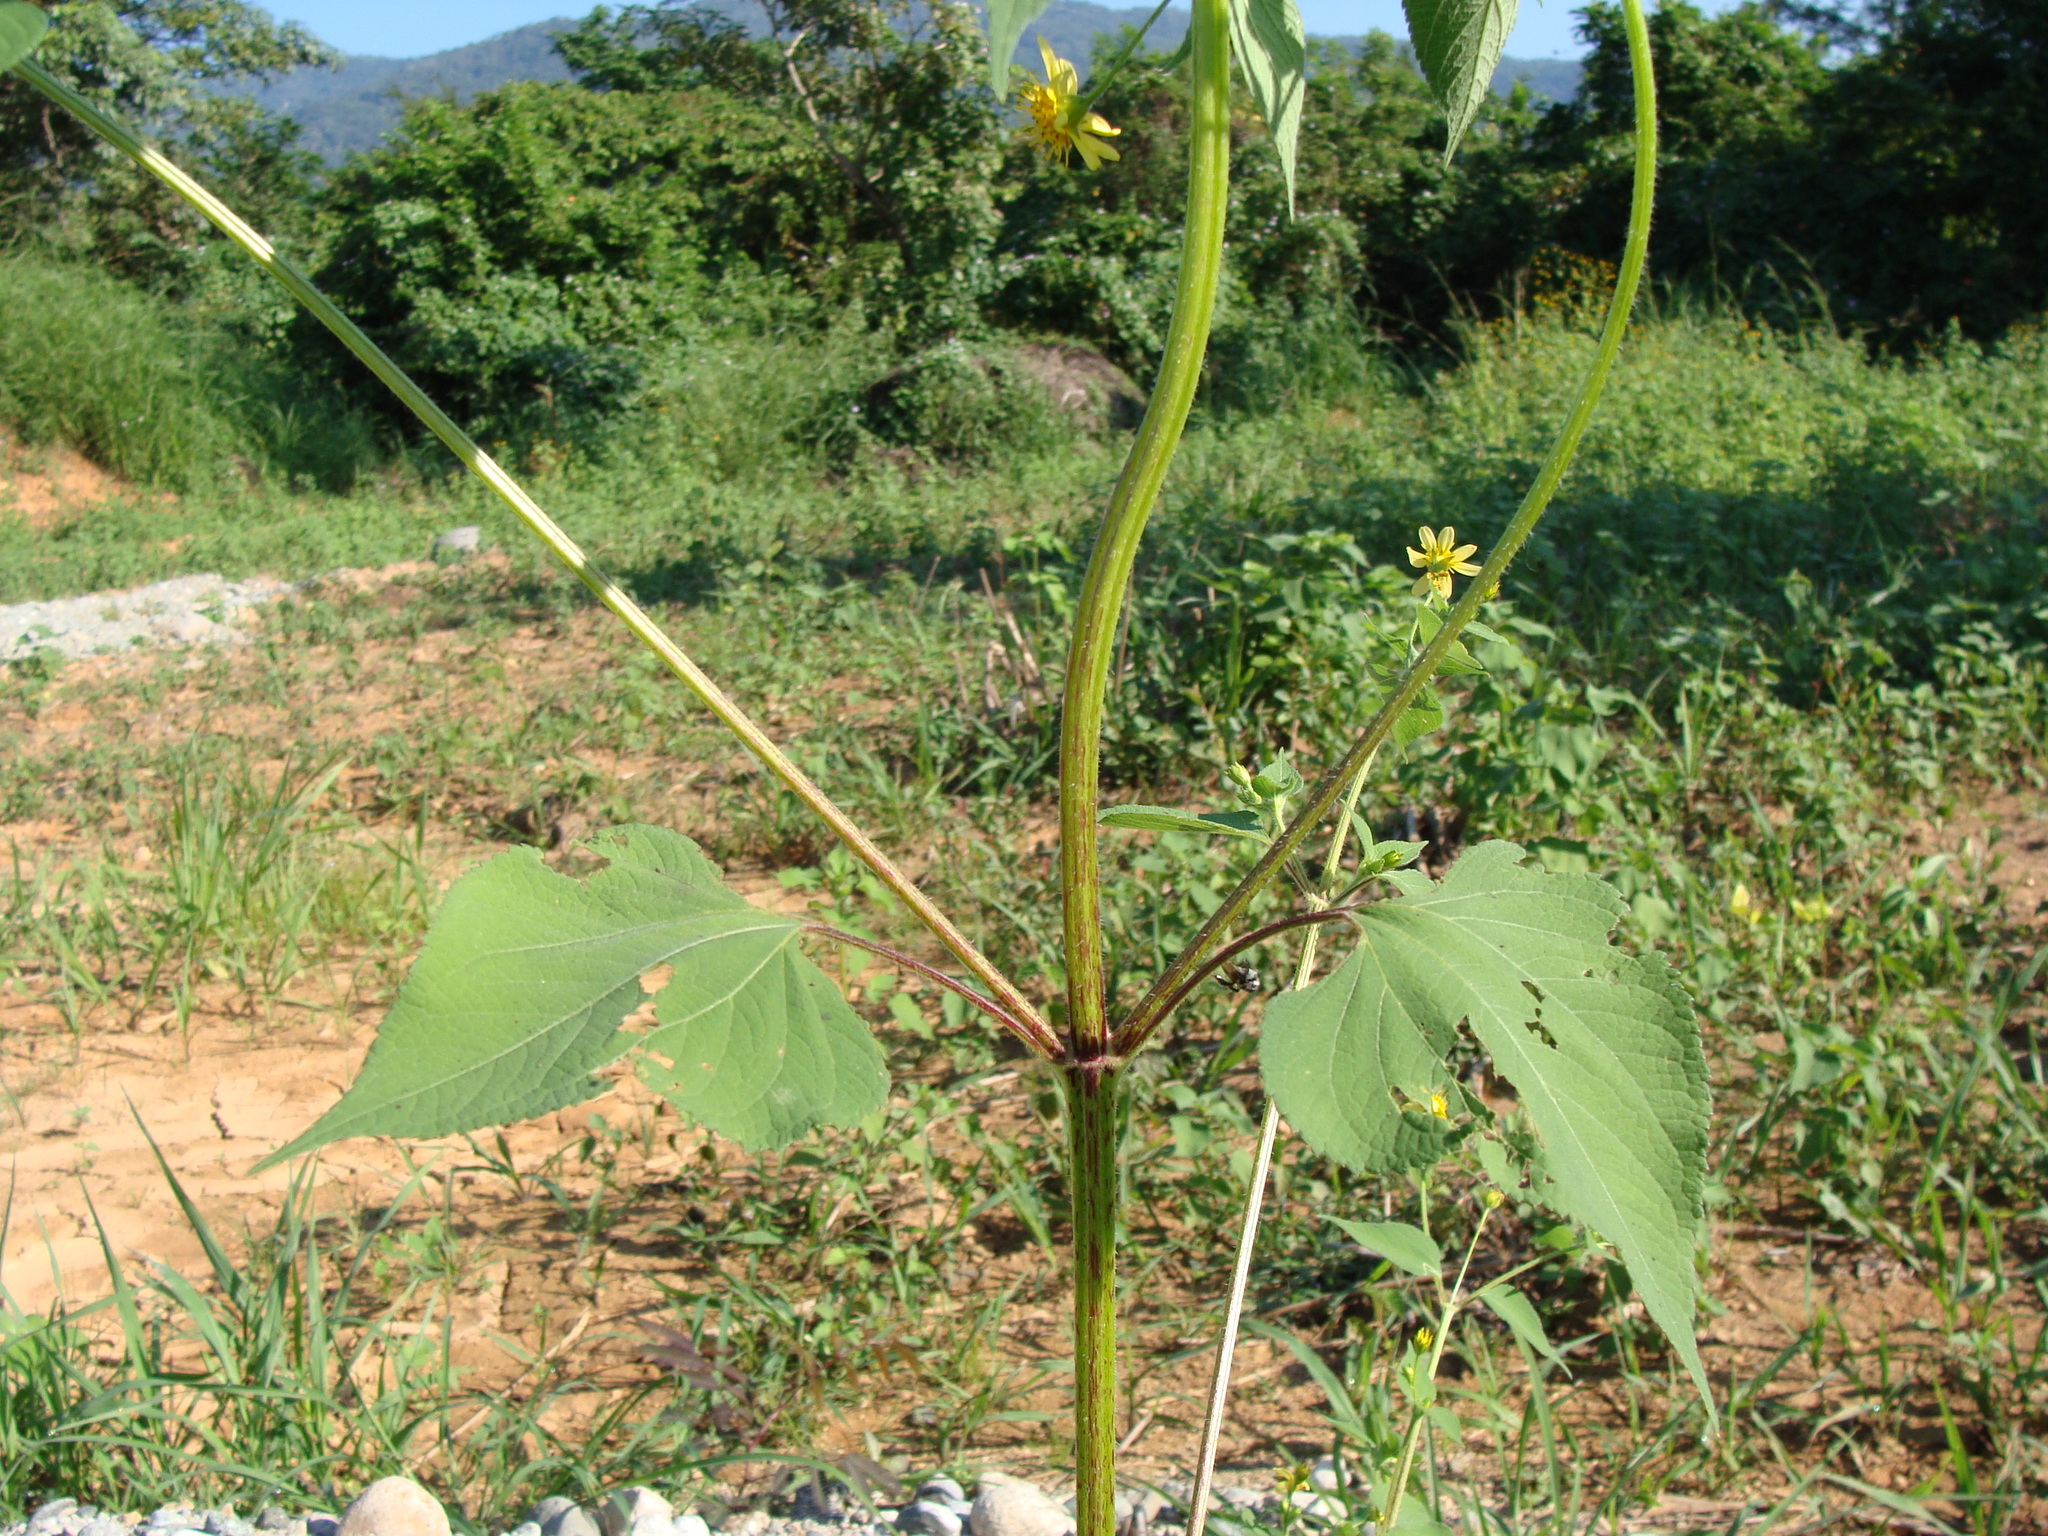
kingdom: Plantae
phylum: Tracheophyta
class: Magnoliopsida
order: Asterales
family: Asteraceae
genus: Baltimora
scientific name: Baltimora recta
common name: Beautyhead
